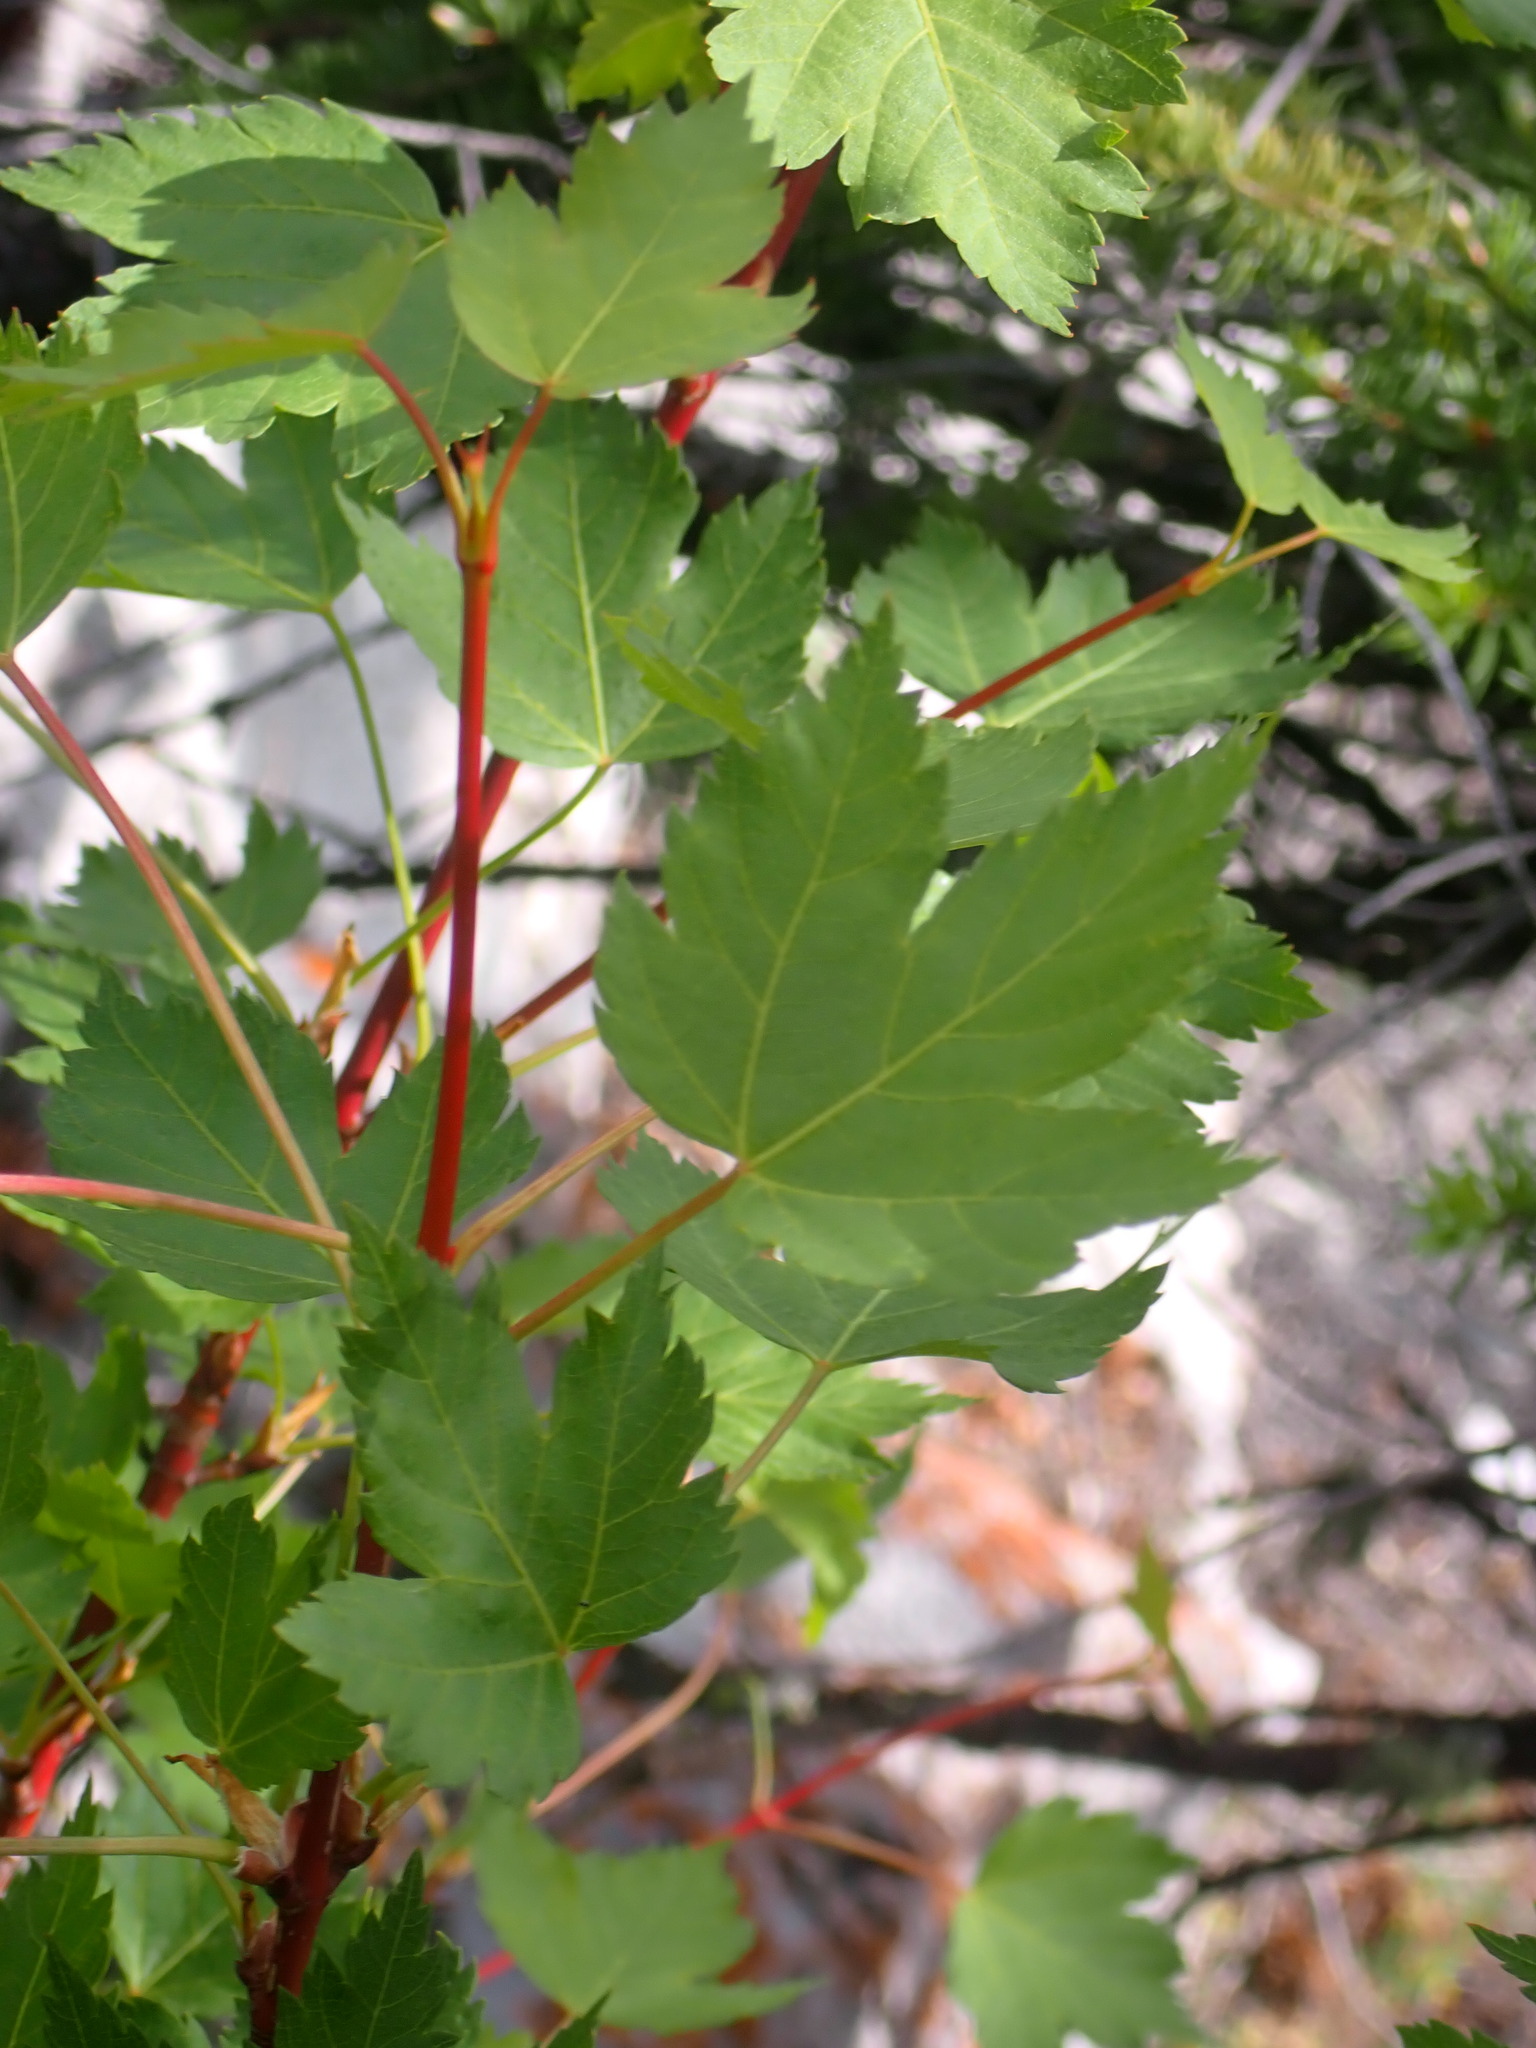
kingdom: Plantae
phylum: Tracheophyta
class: Magnoliopsida
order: Sapindales
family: Sapindaceae
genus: Acer
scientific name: Acer glabrum
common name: Rocky mountain maple
